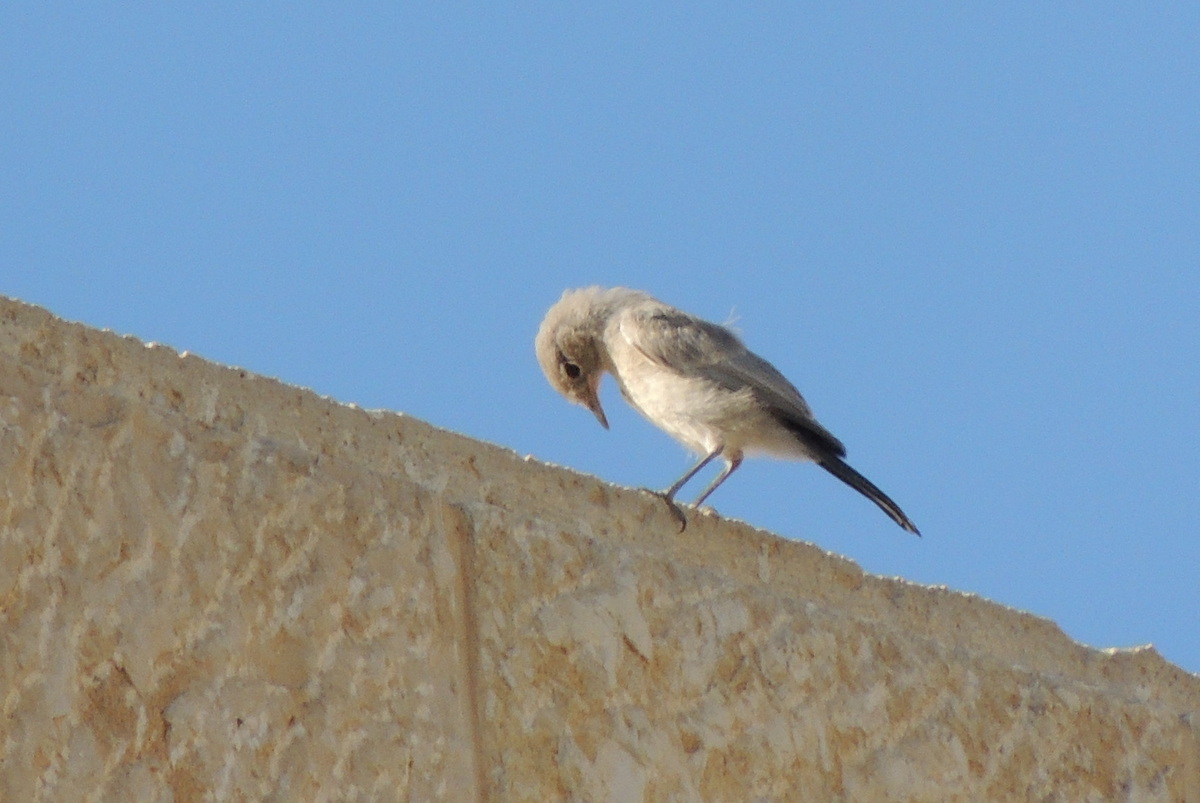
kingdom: Animalia
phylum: Chordata
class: Aves
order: Passeriformes
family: Muscicapidae
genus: Oenanthe
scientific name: Oenanthe melanura
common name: Blackstart
